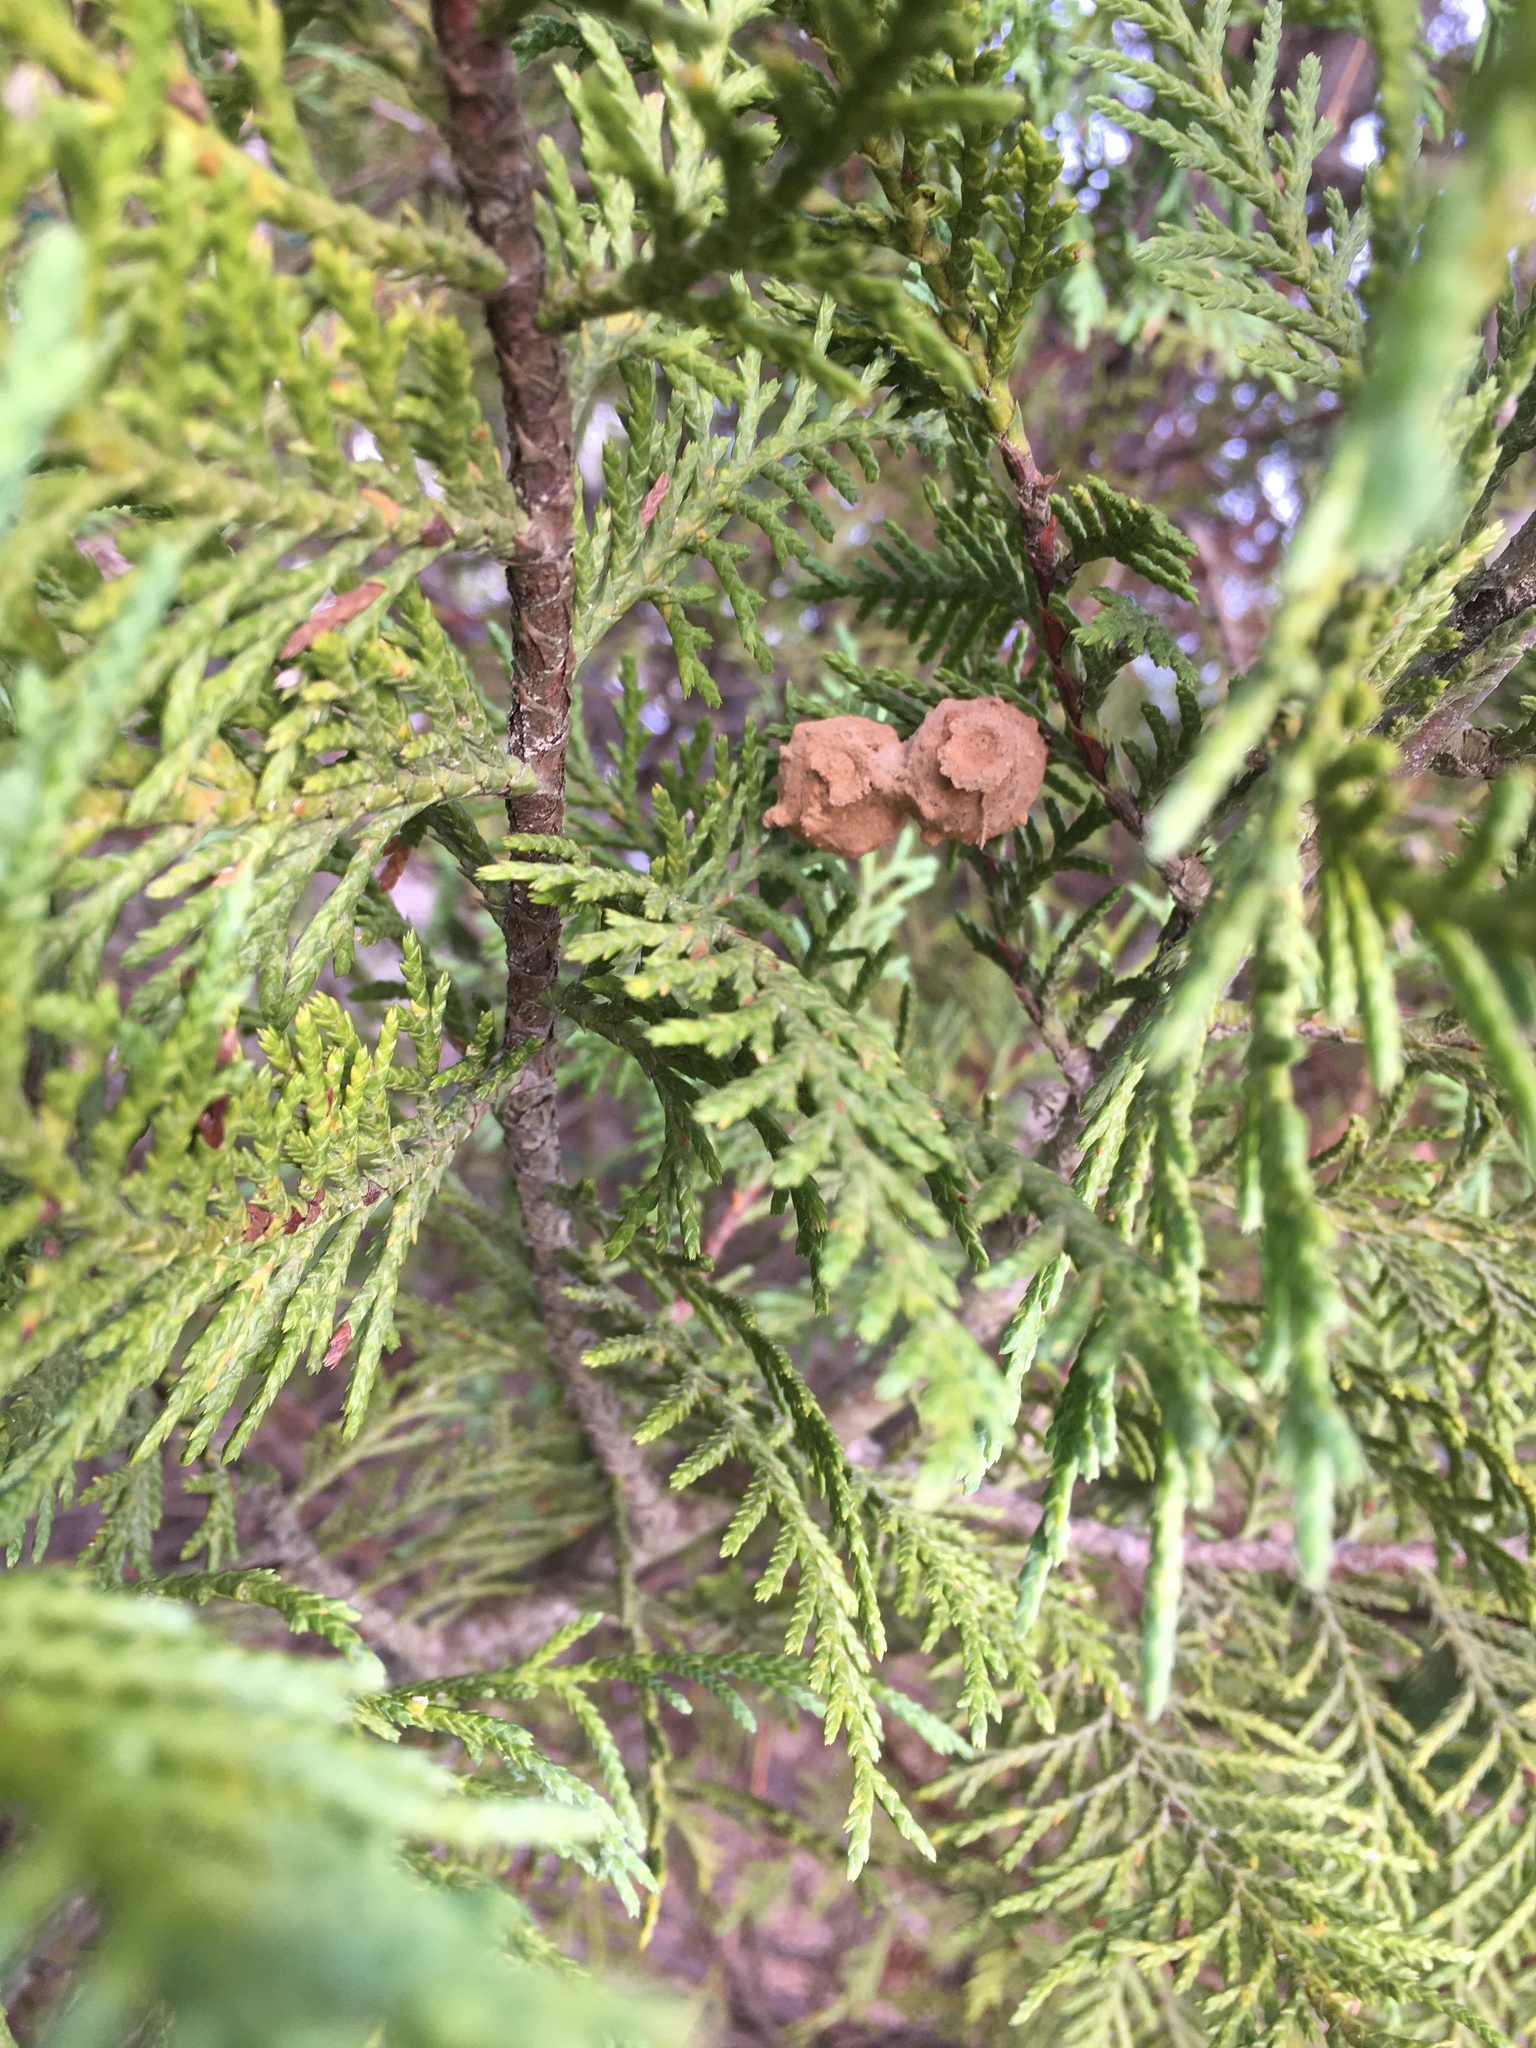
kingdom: Animalia
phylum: Arthropoda
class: Insecta
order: Hymenoptera
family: Vespidae
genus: Eumenes
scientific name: Eumenes fraternus
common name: Fraternal potter wasp
